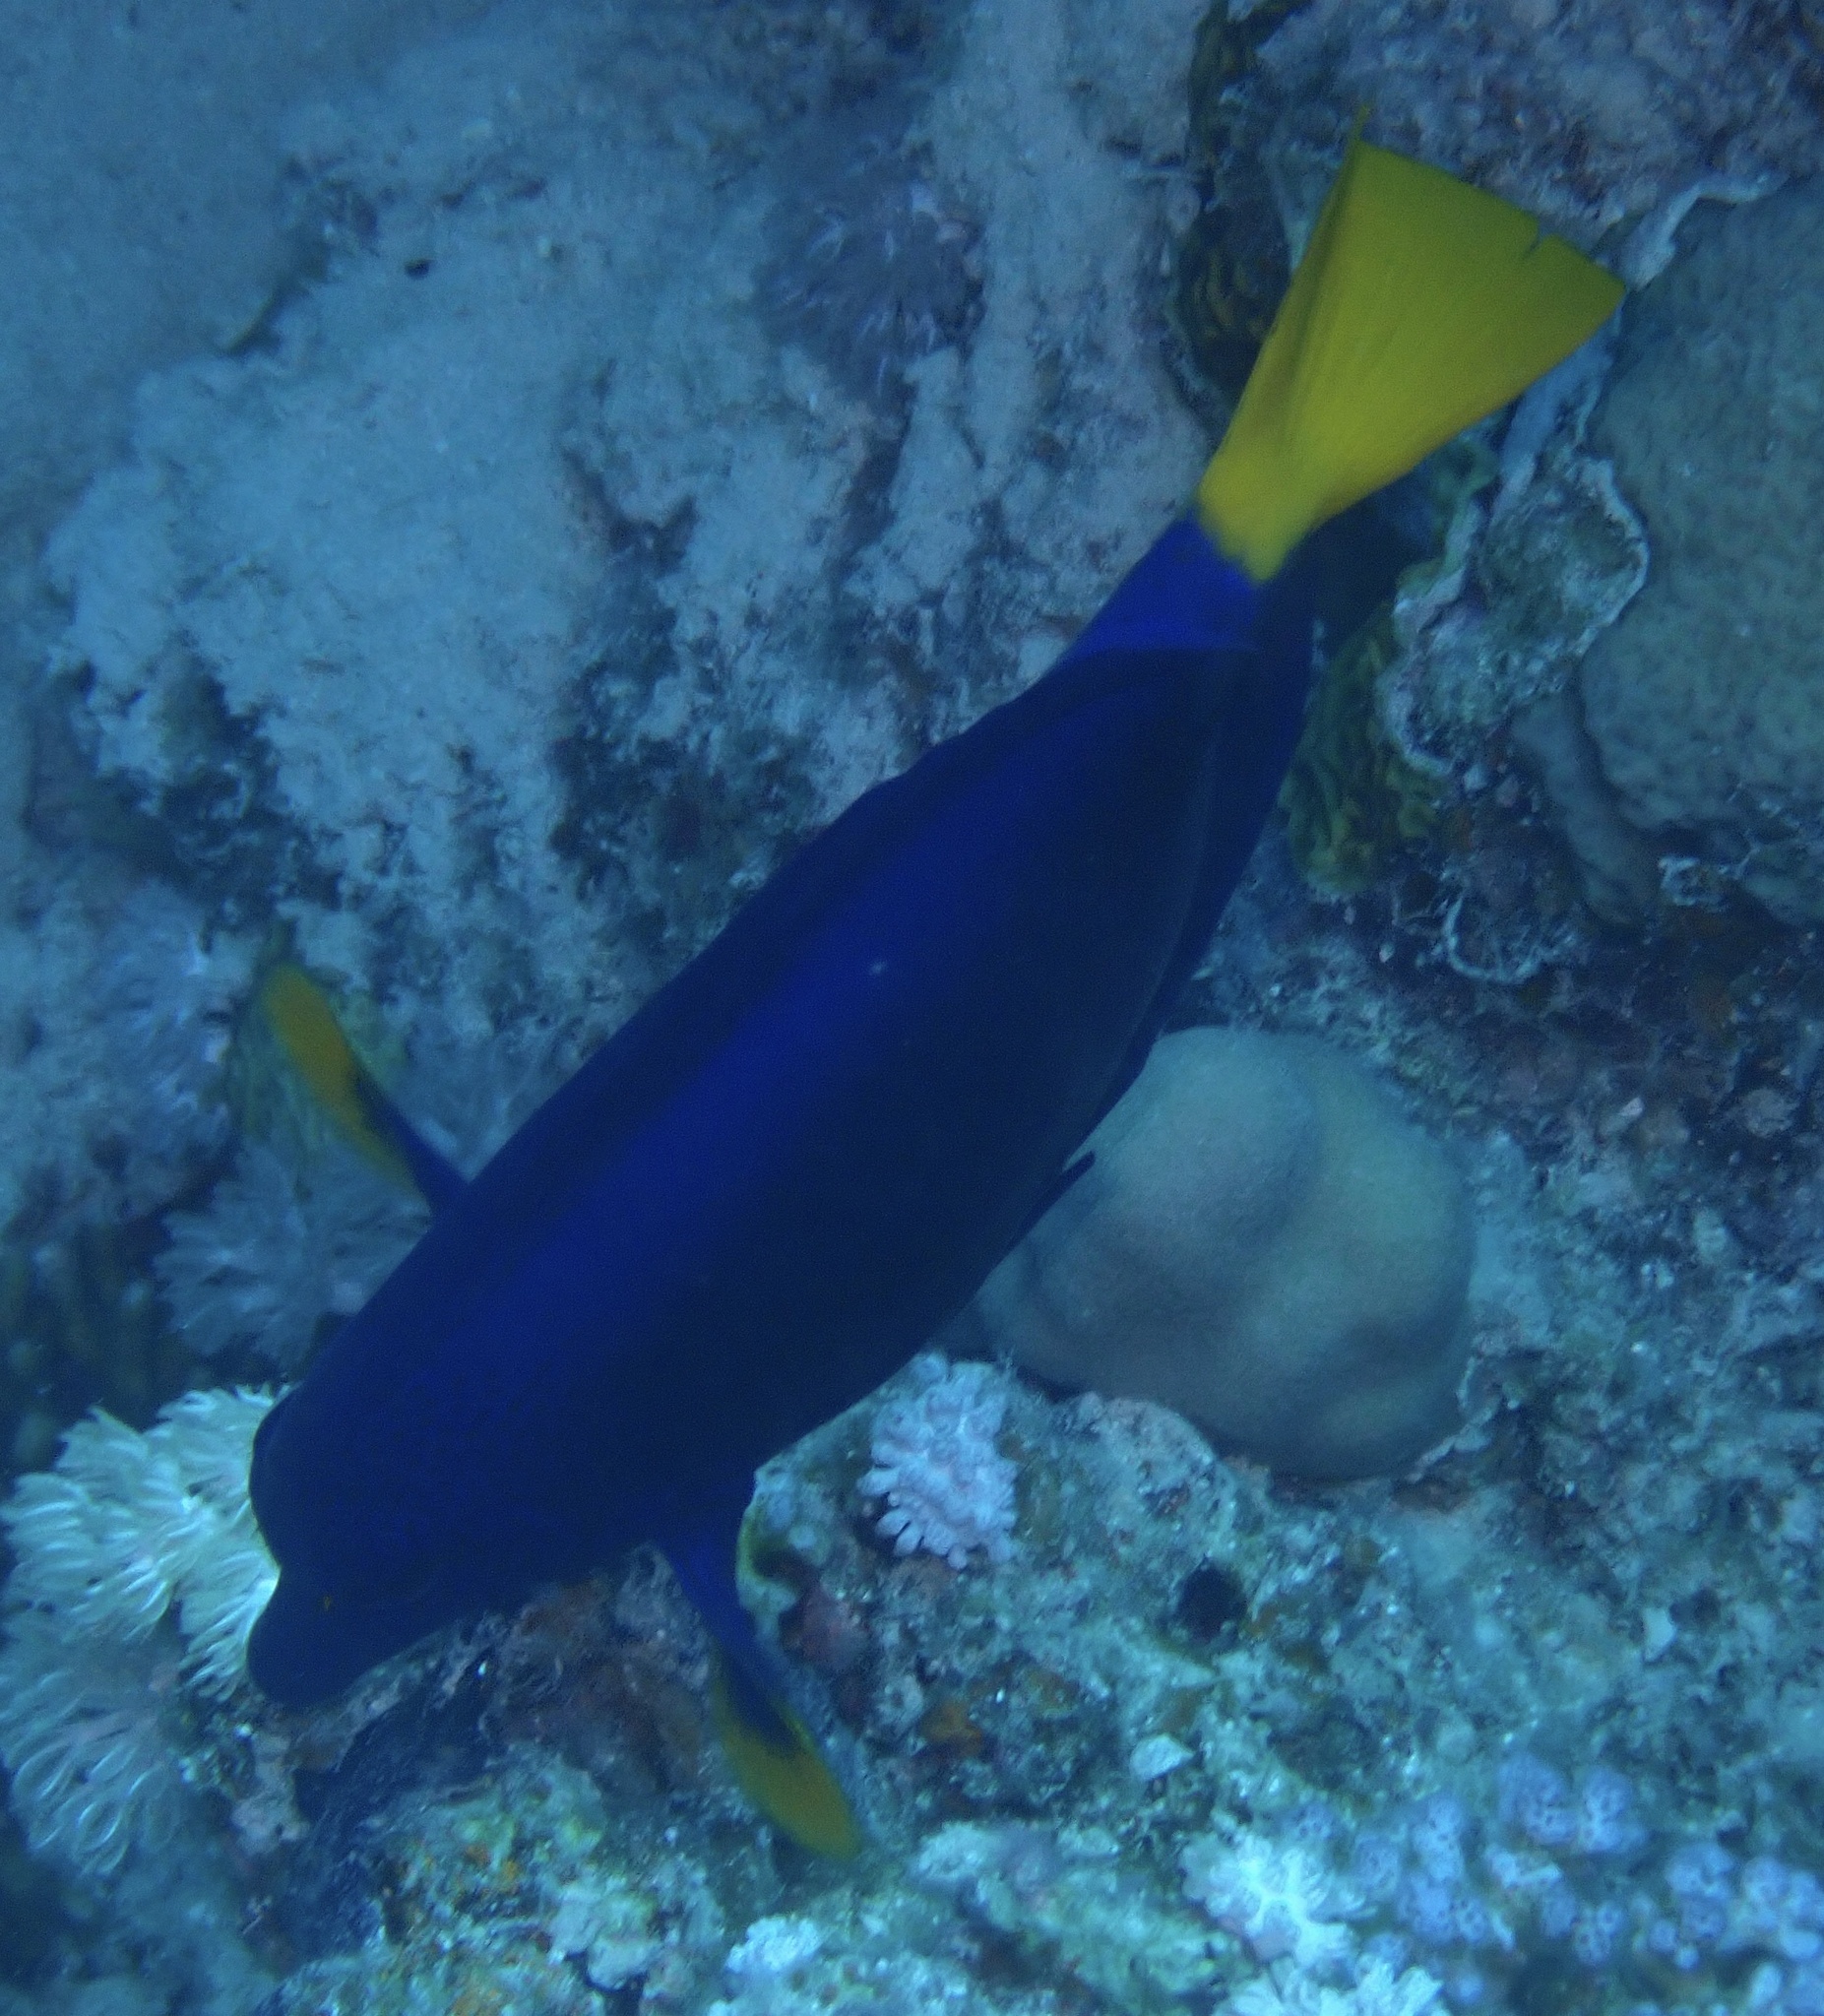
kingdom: Animalia
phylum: Chordata
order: Perciformes
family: Acanthuridae
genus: Zebrasoma
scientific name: Zebrasoma xanthurum
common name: Purple tang
